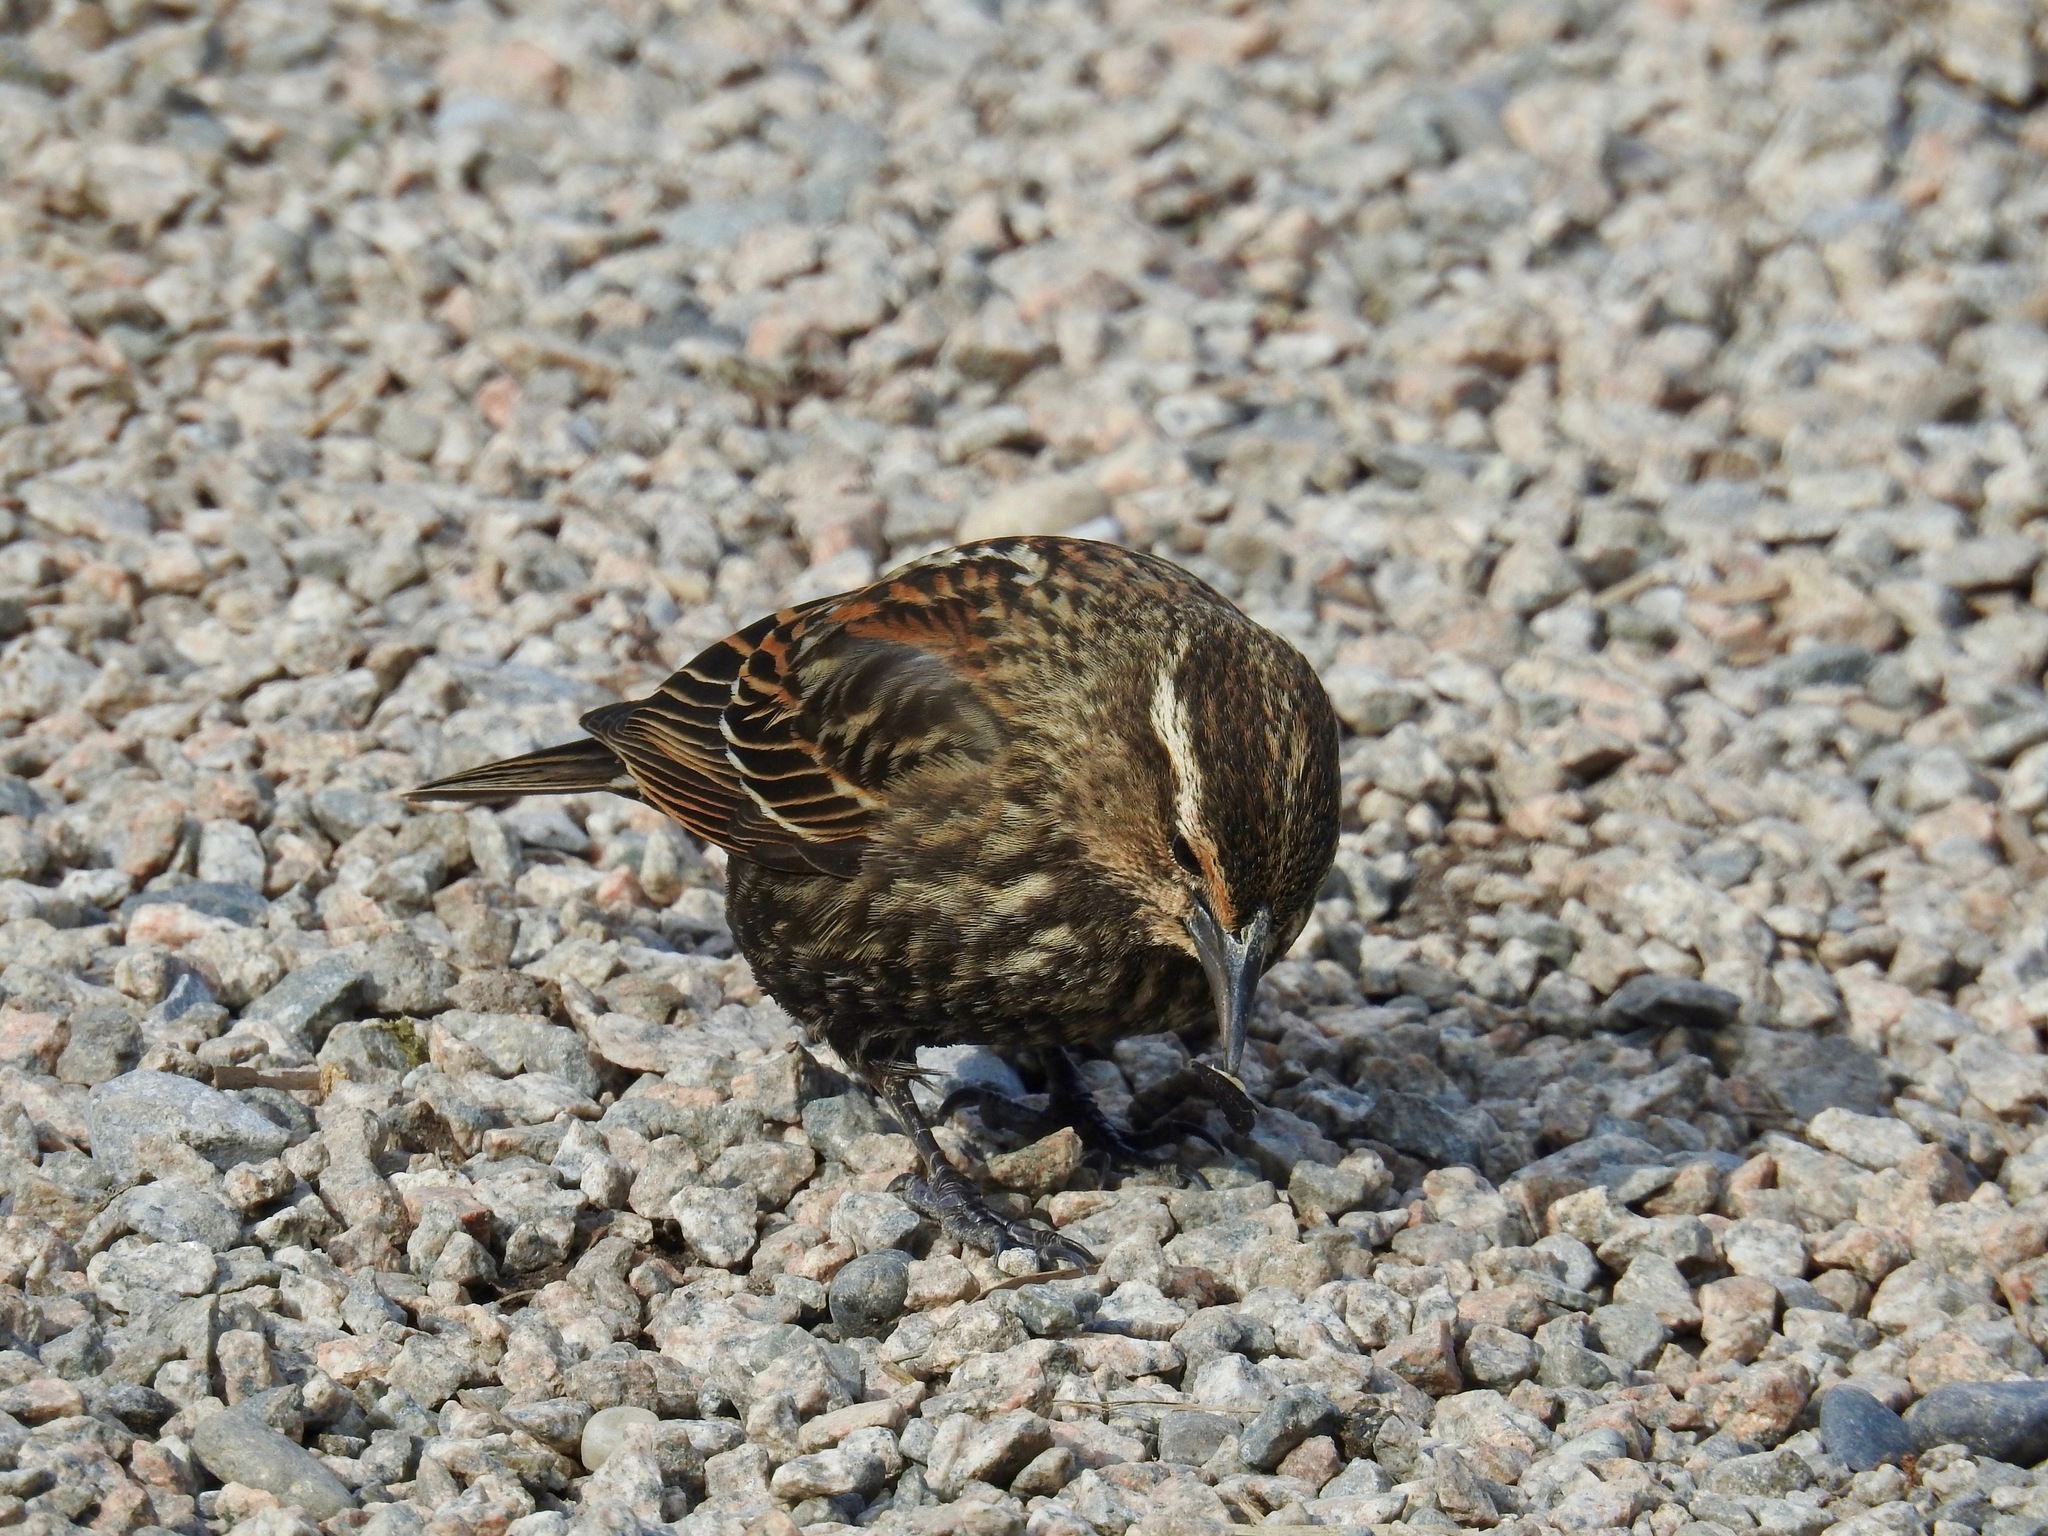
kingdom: Animalia
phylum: Chordata
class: Aves
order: Passeriformes
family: Icteridae
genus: Agelaius
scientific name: Agelaius phoeniceus
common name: Red-winged blackbird
